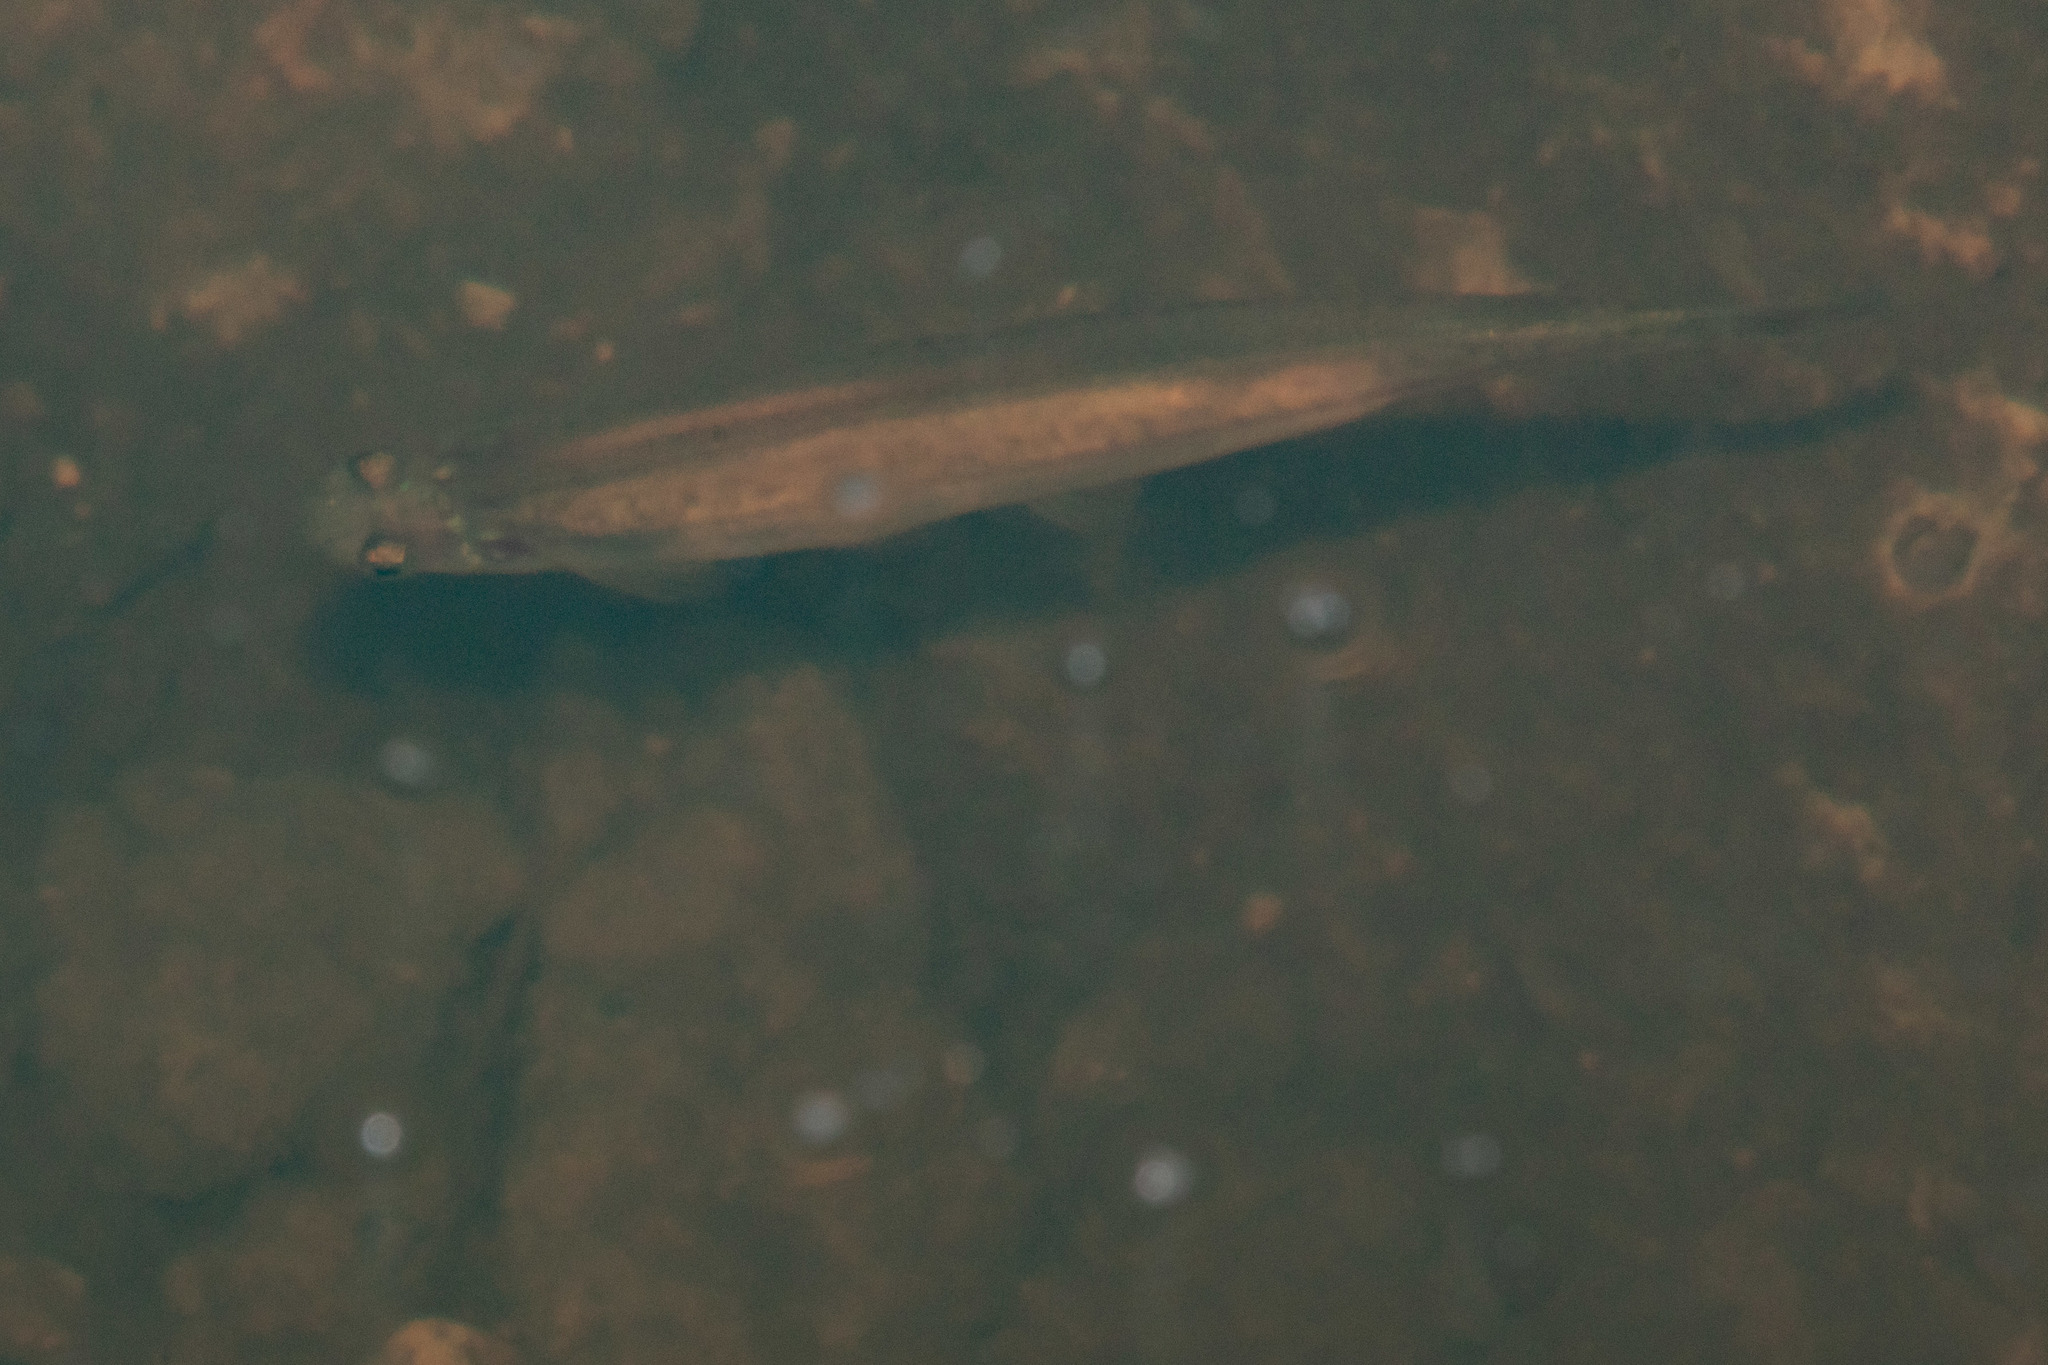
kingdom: Animalia
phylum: Chordata
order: Osmeriformes
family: Galaxiidae
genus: Galaxias
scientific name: Galaxias maculatus
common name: Common galaxias
